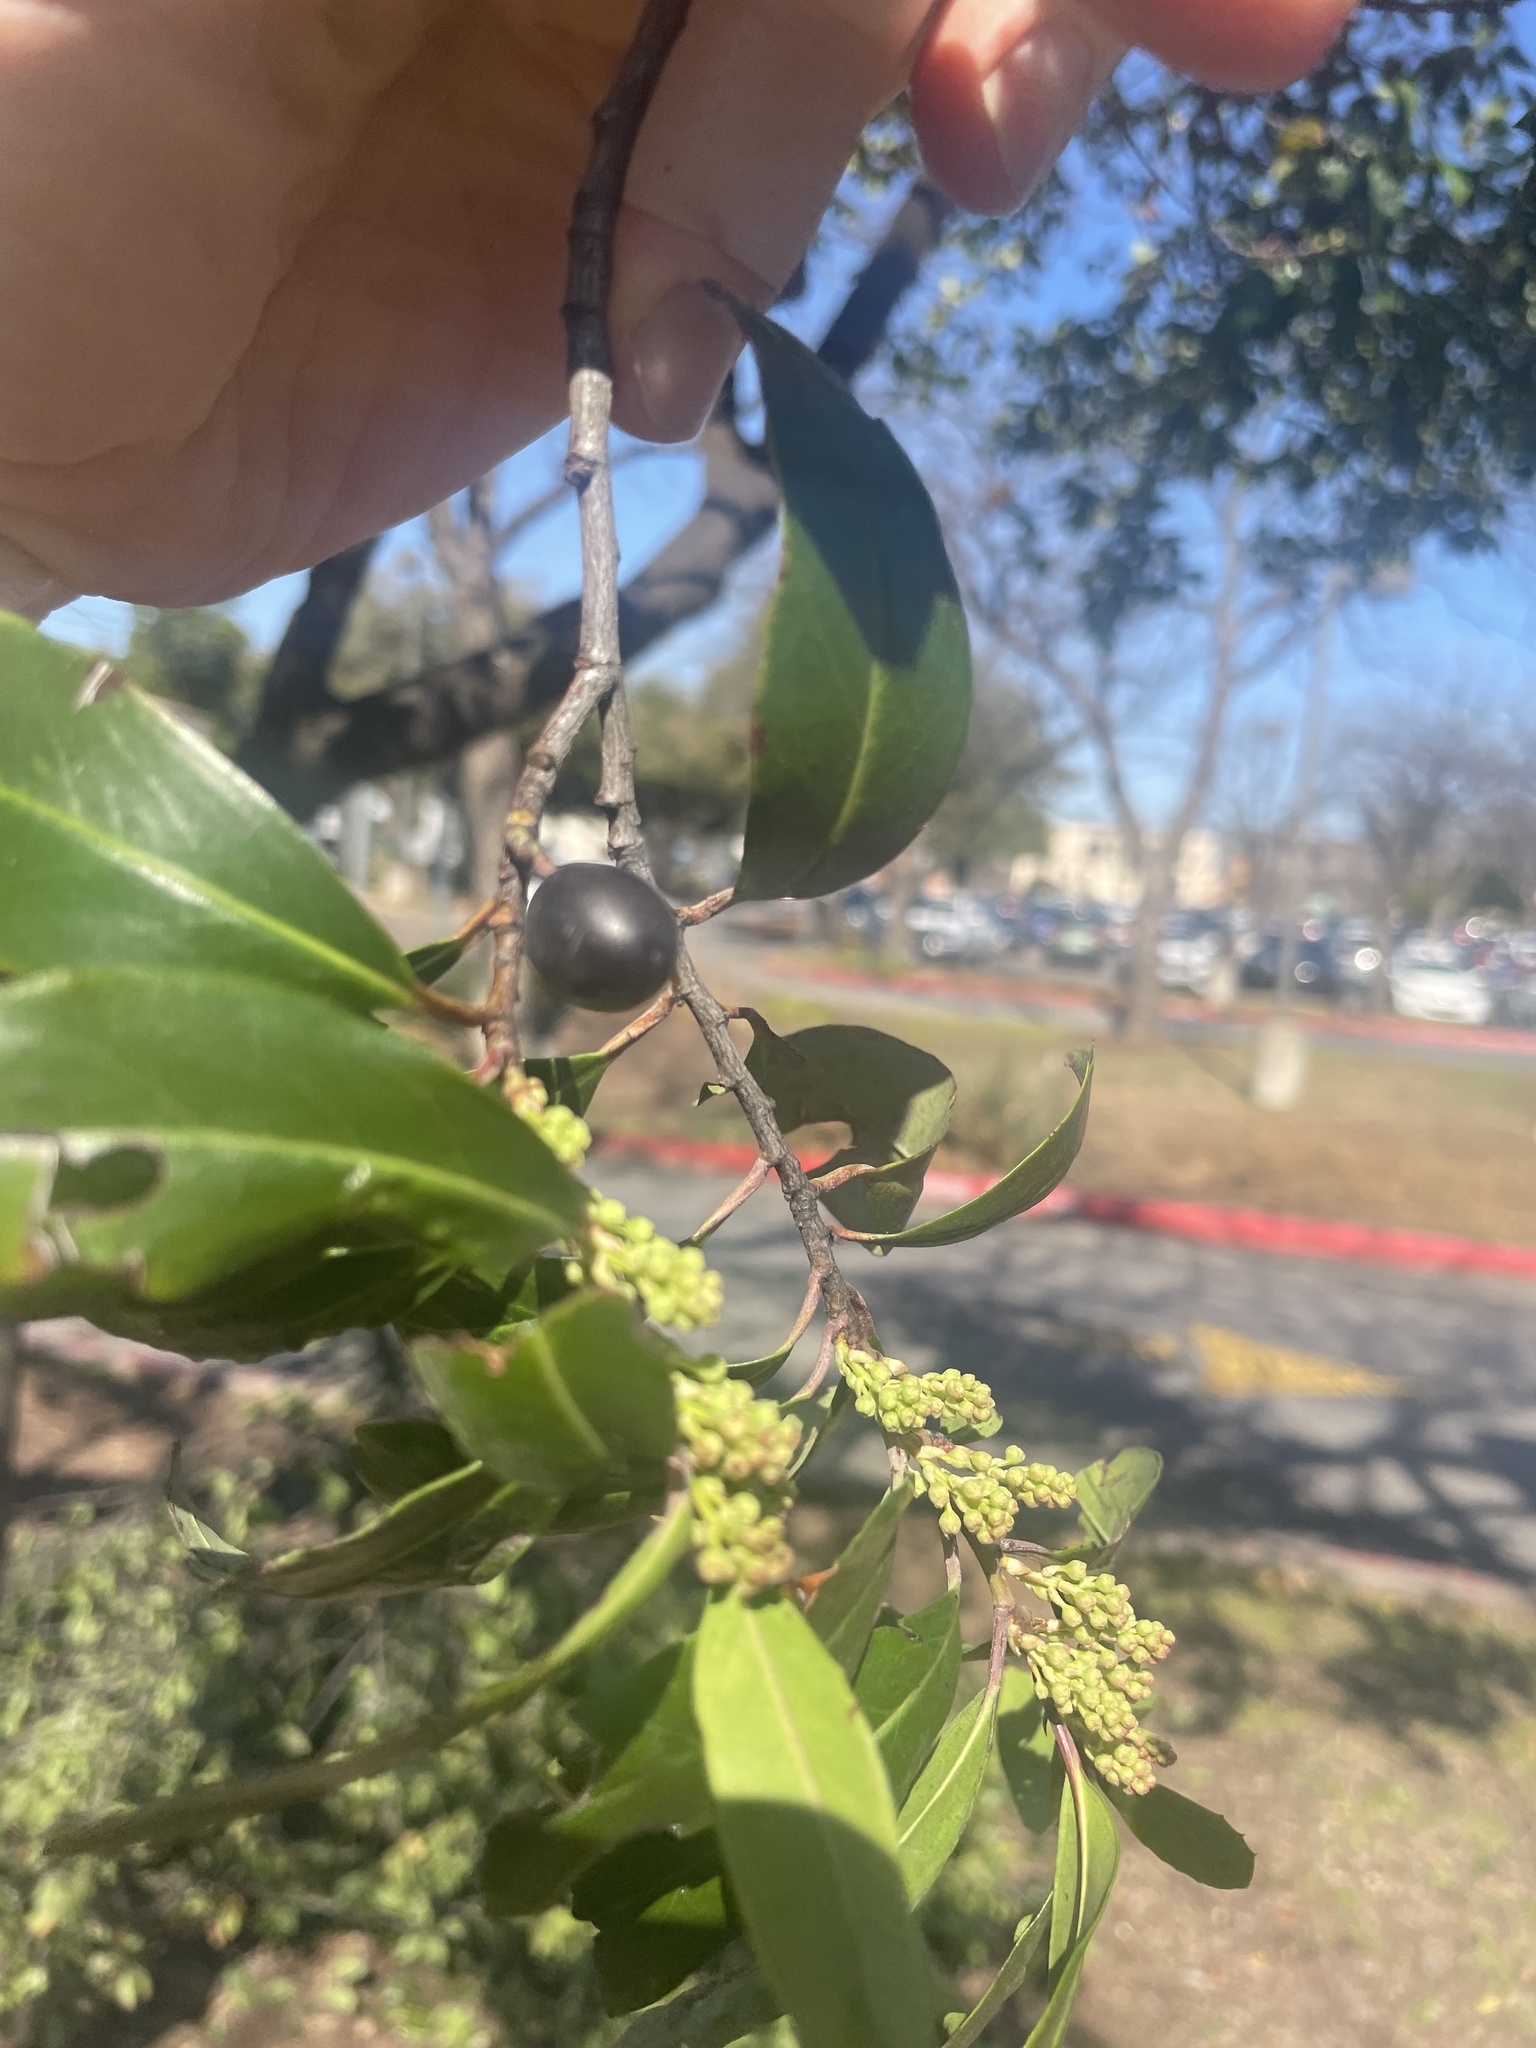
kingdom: Plantae
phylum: Tracheophyta
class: Magnoliopsida
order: Rosales
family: Rosaceae
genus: Prunus
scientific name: Prunus caroliniana
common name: Carolina laurel cherry
